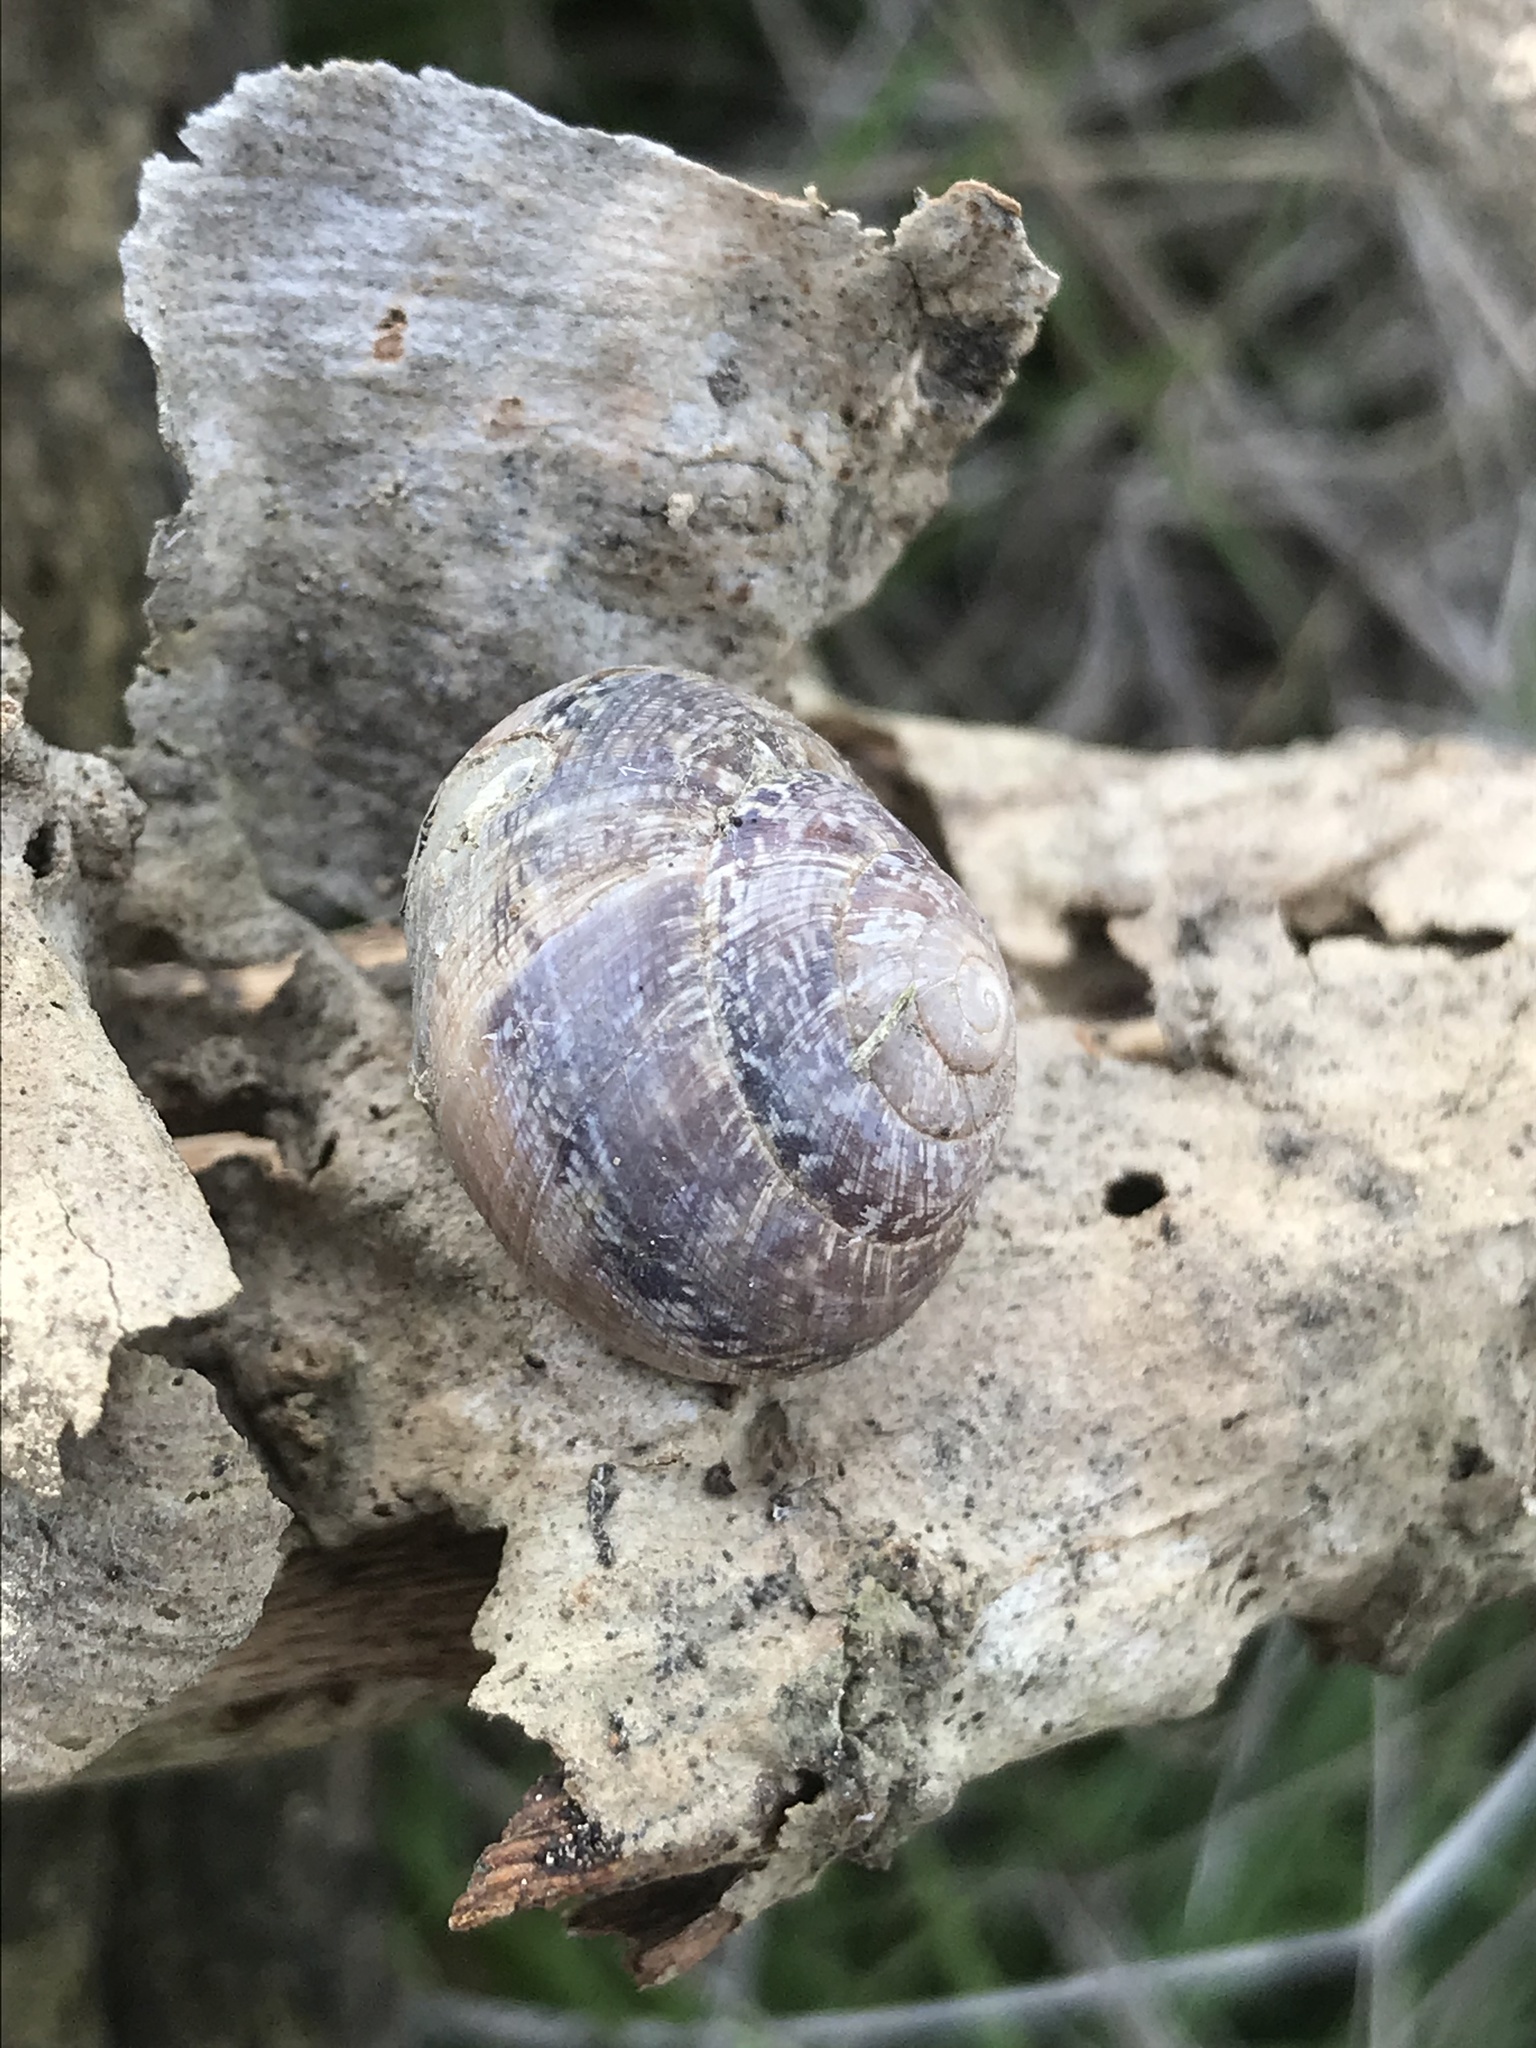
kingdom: Animalia
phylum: Mollusca
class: Gastropoda
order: Stylommatophora
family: Xanthonychidae
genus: Xerarionta
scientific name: Xerarionta tryoni
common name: Bicolor cactus snail
